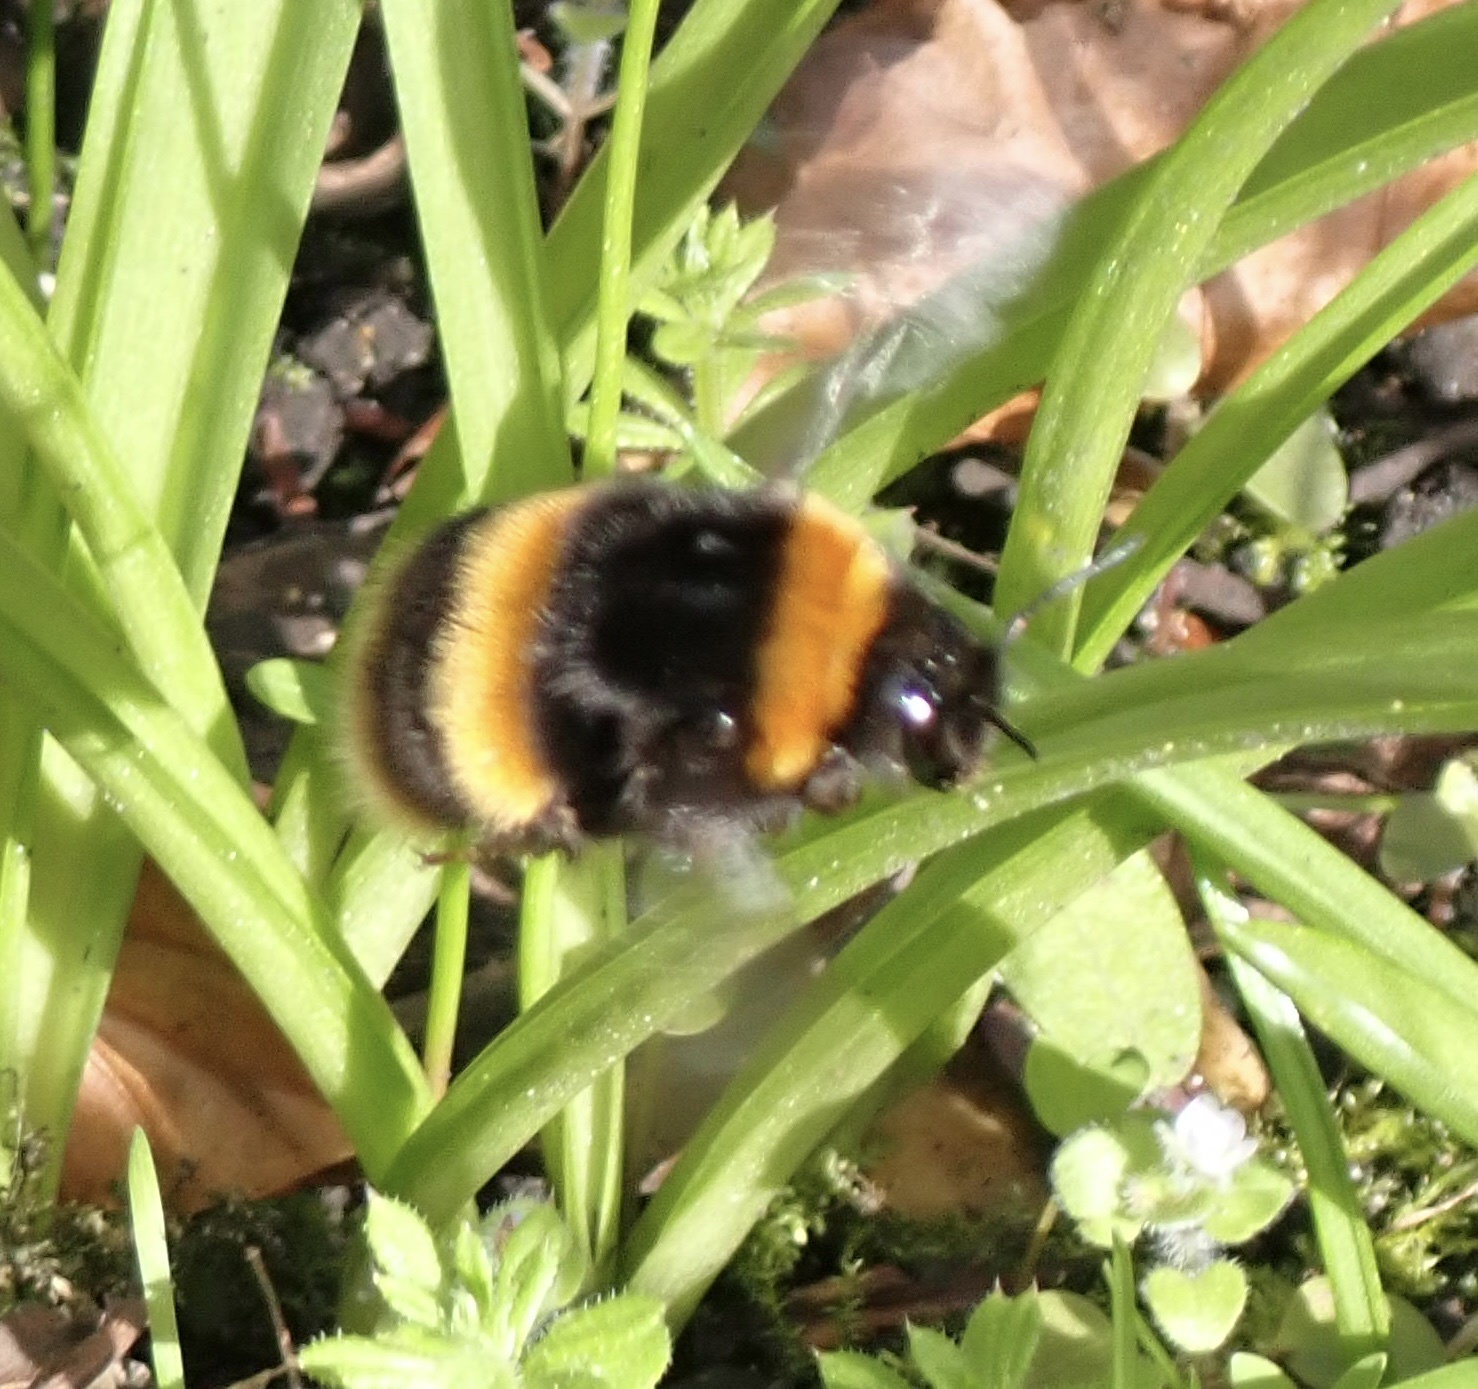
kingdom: Animalia
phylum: Arthropoda
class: Insecta
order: Hymenoptera
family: Apidae
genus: Bombus
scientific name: Bombus terrestris
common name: Buff-tailed bumblebee
